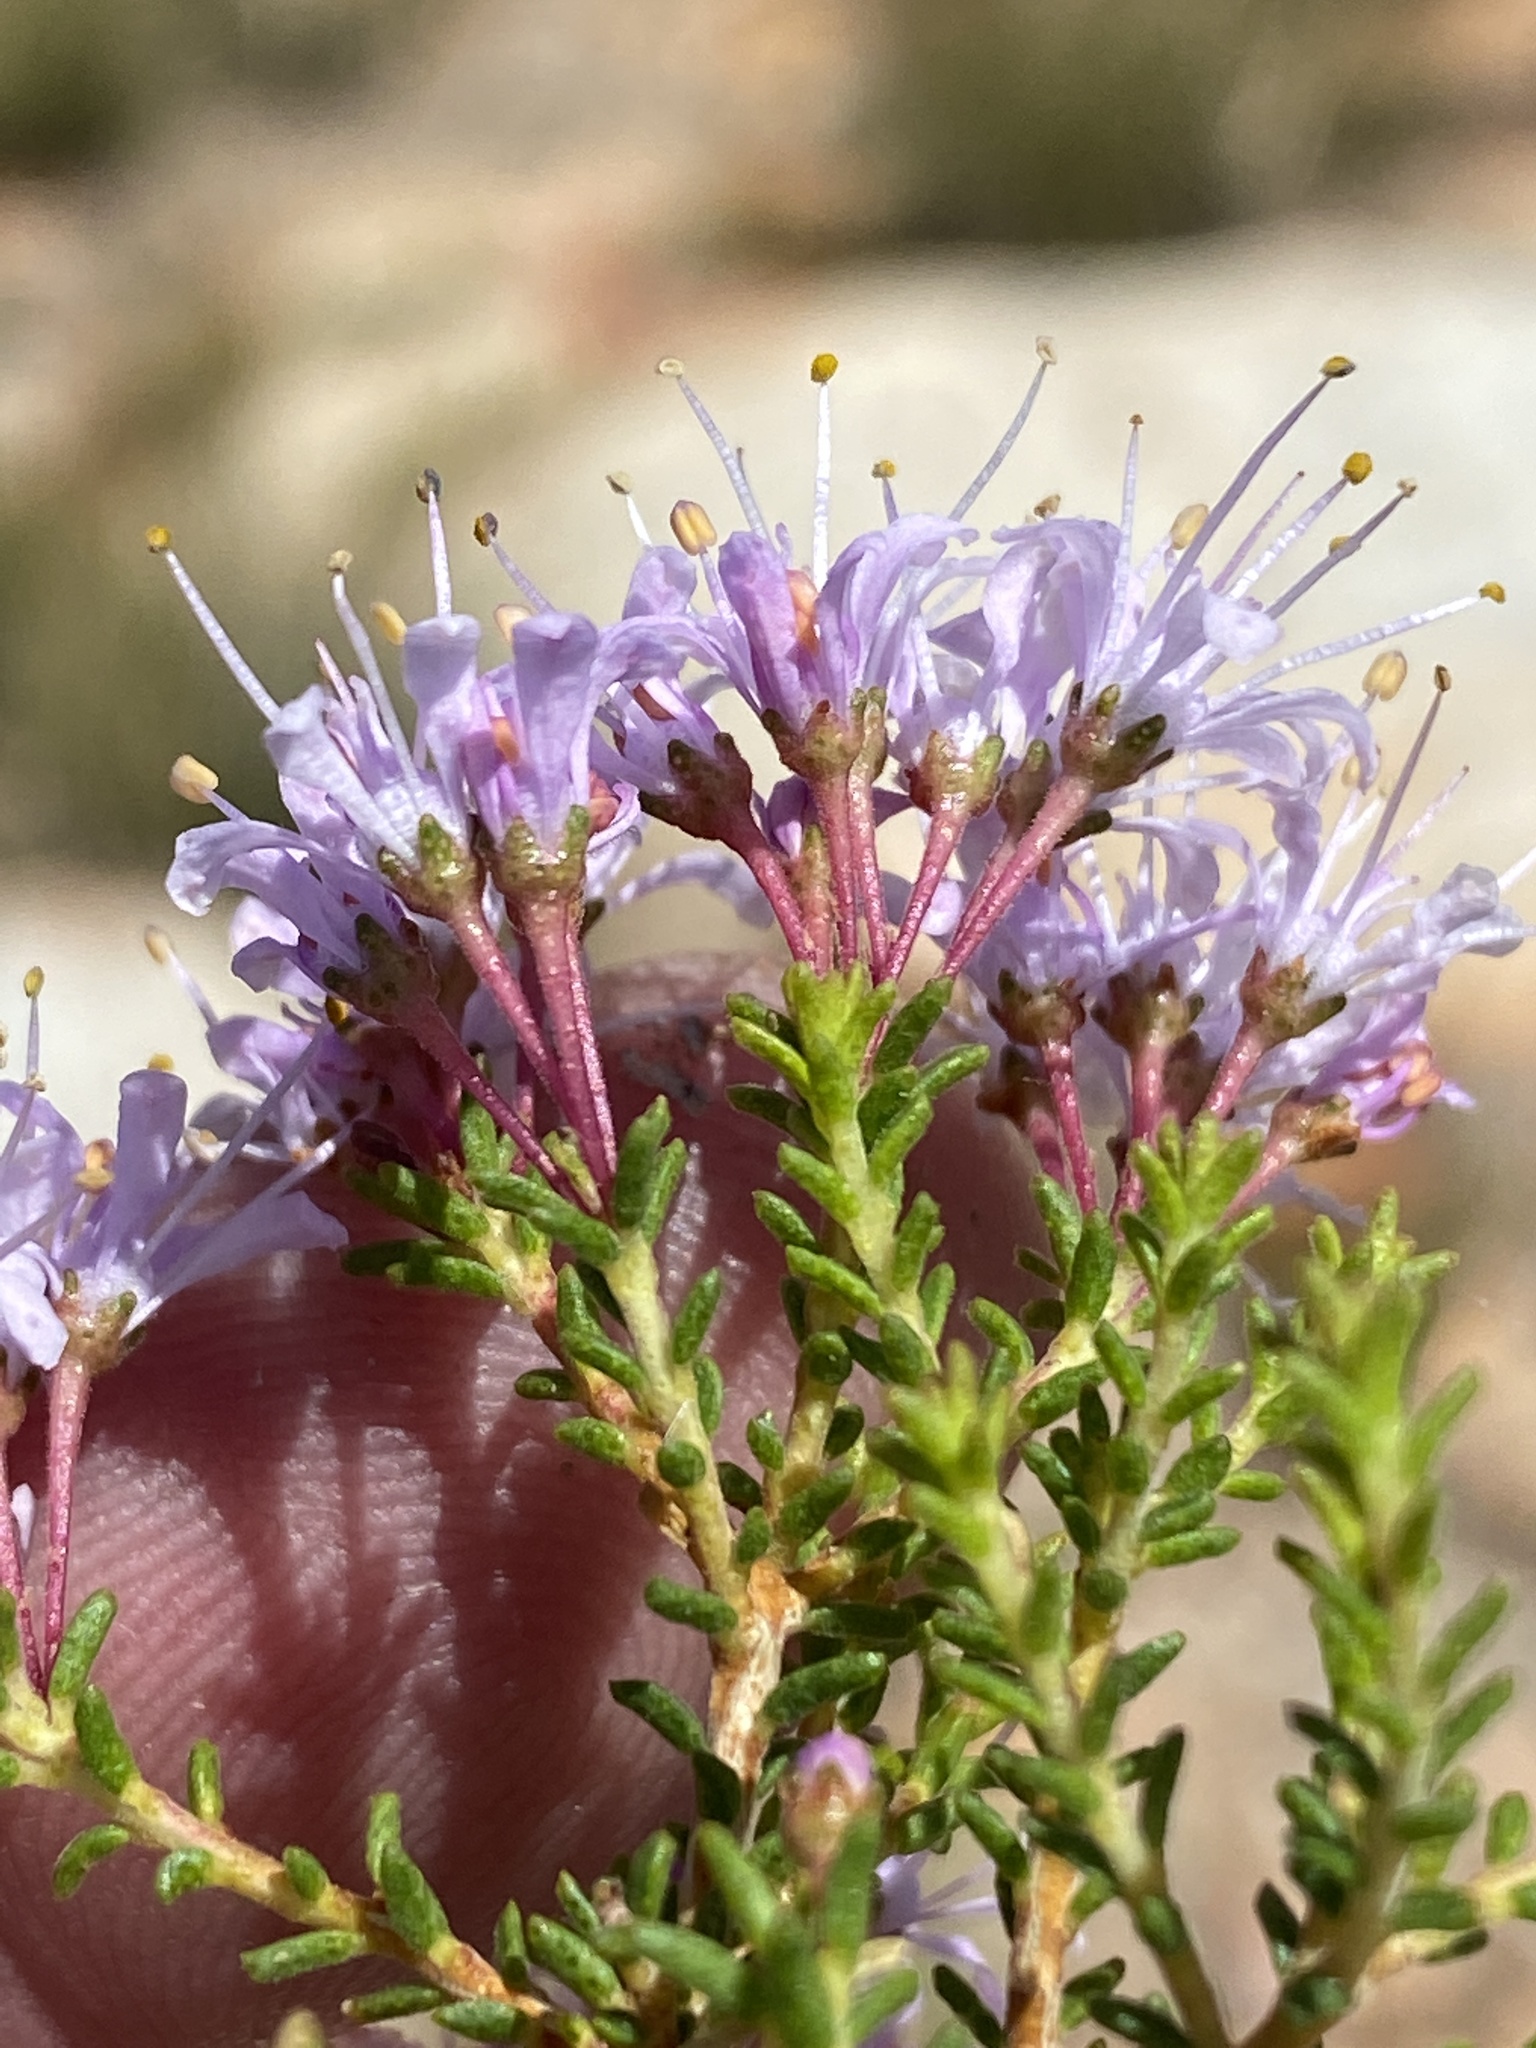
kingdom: Plantae
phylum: Tracheophyta
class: Magnoliopsida
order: Sapindales
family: Rutaceae
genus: Agathosma
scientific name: Agathosma capensis
